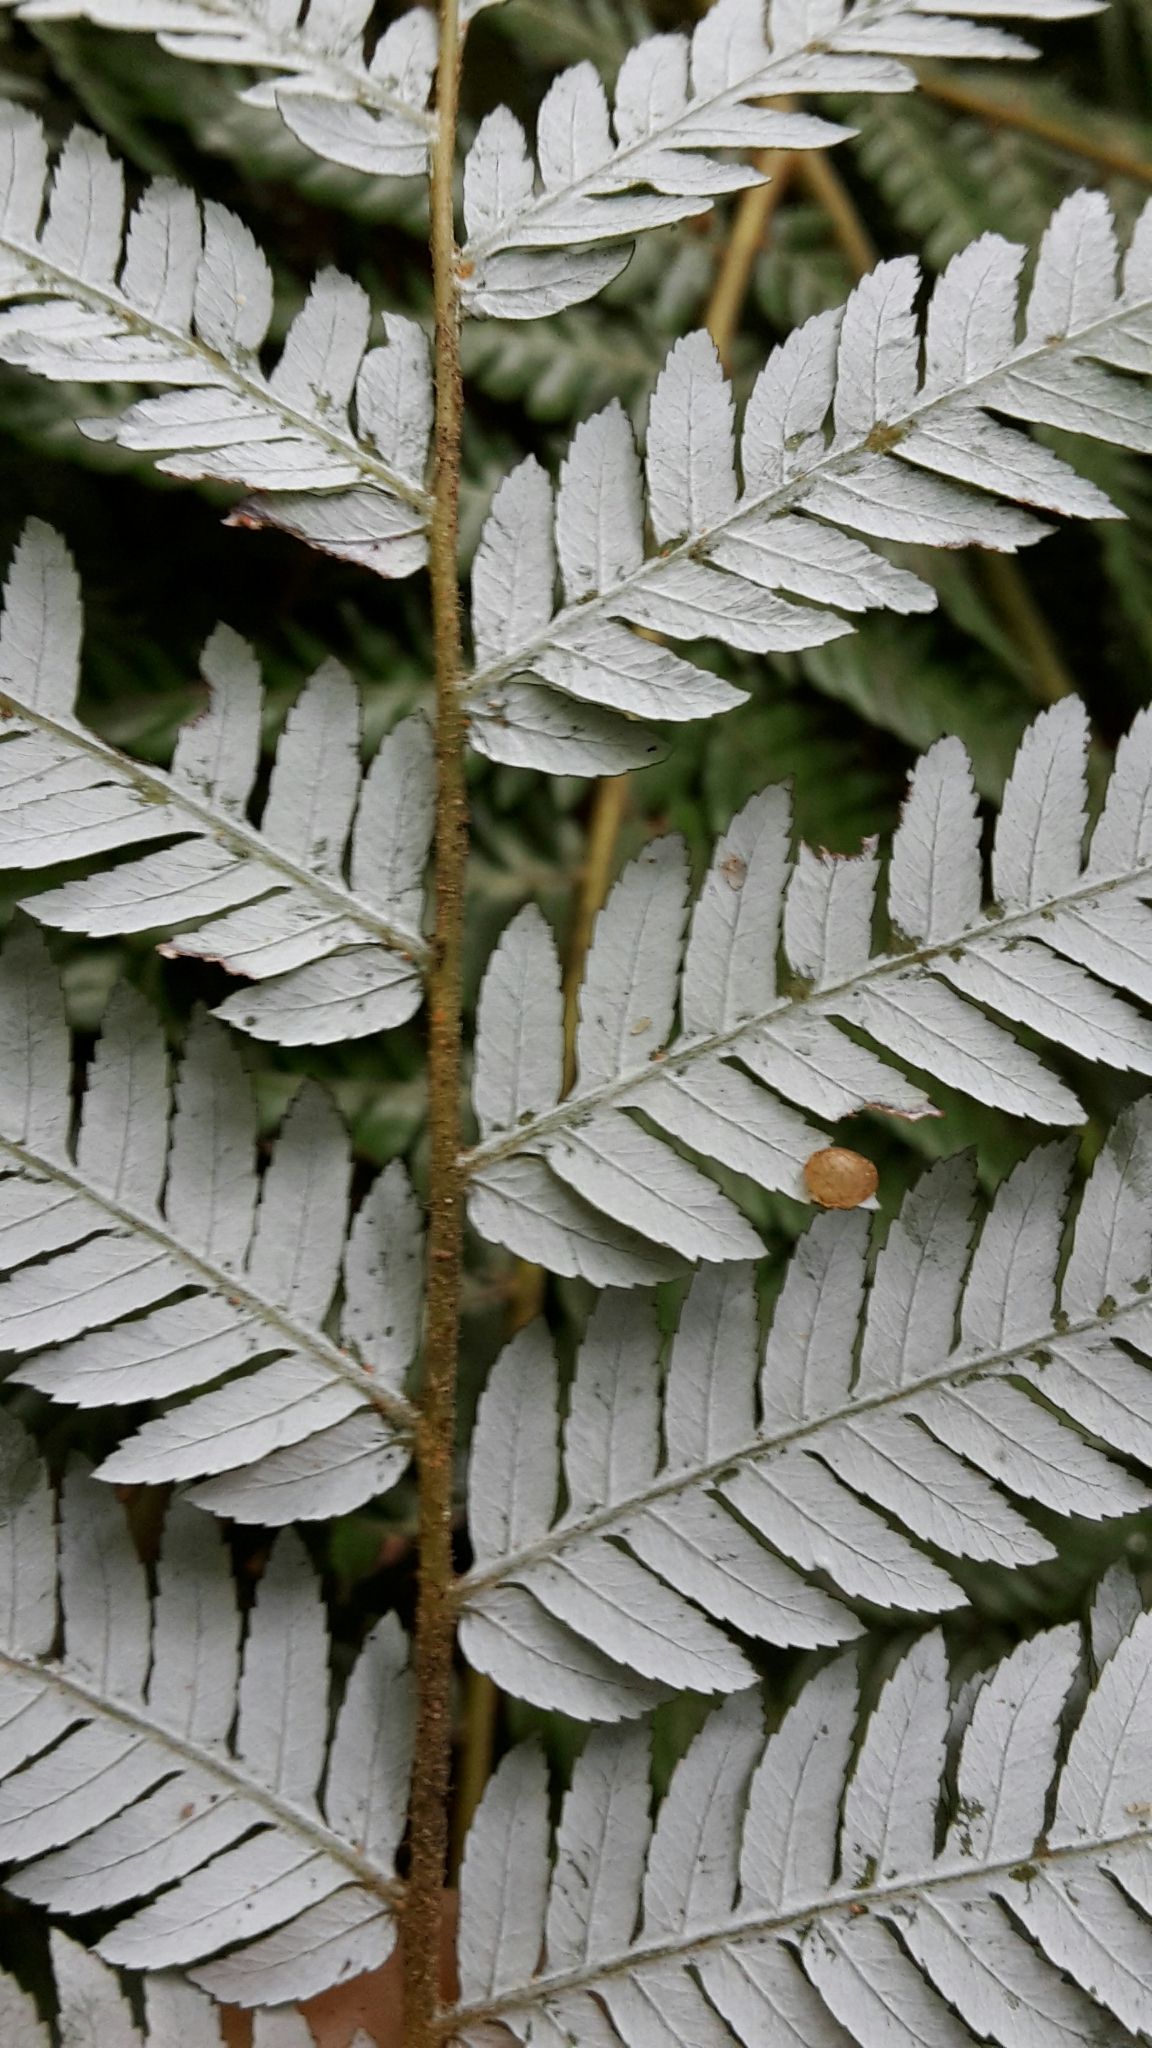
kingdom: Plantae
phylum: Tracheophyta
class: Polypodiopsida
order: Cyatheales
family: Cyatheaceae
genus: Alsophila
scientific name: Alsophila dealbata
